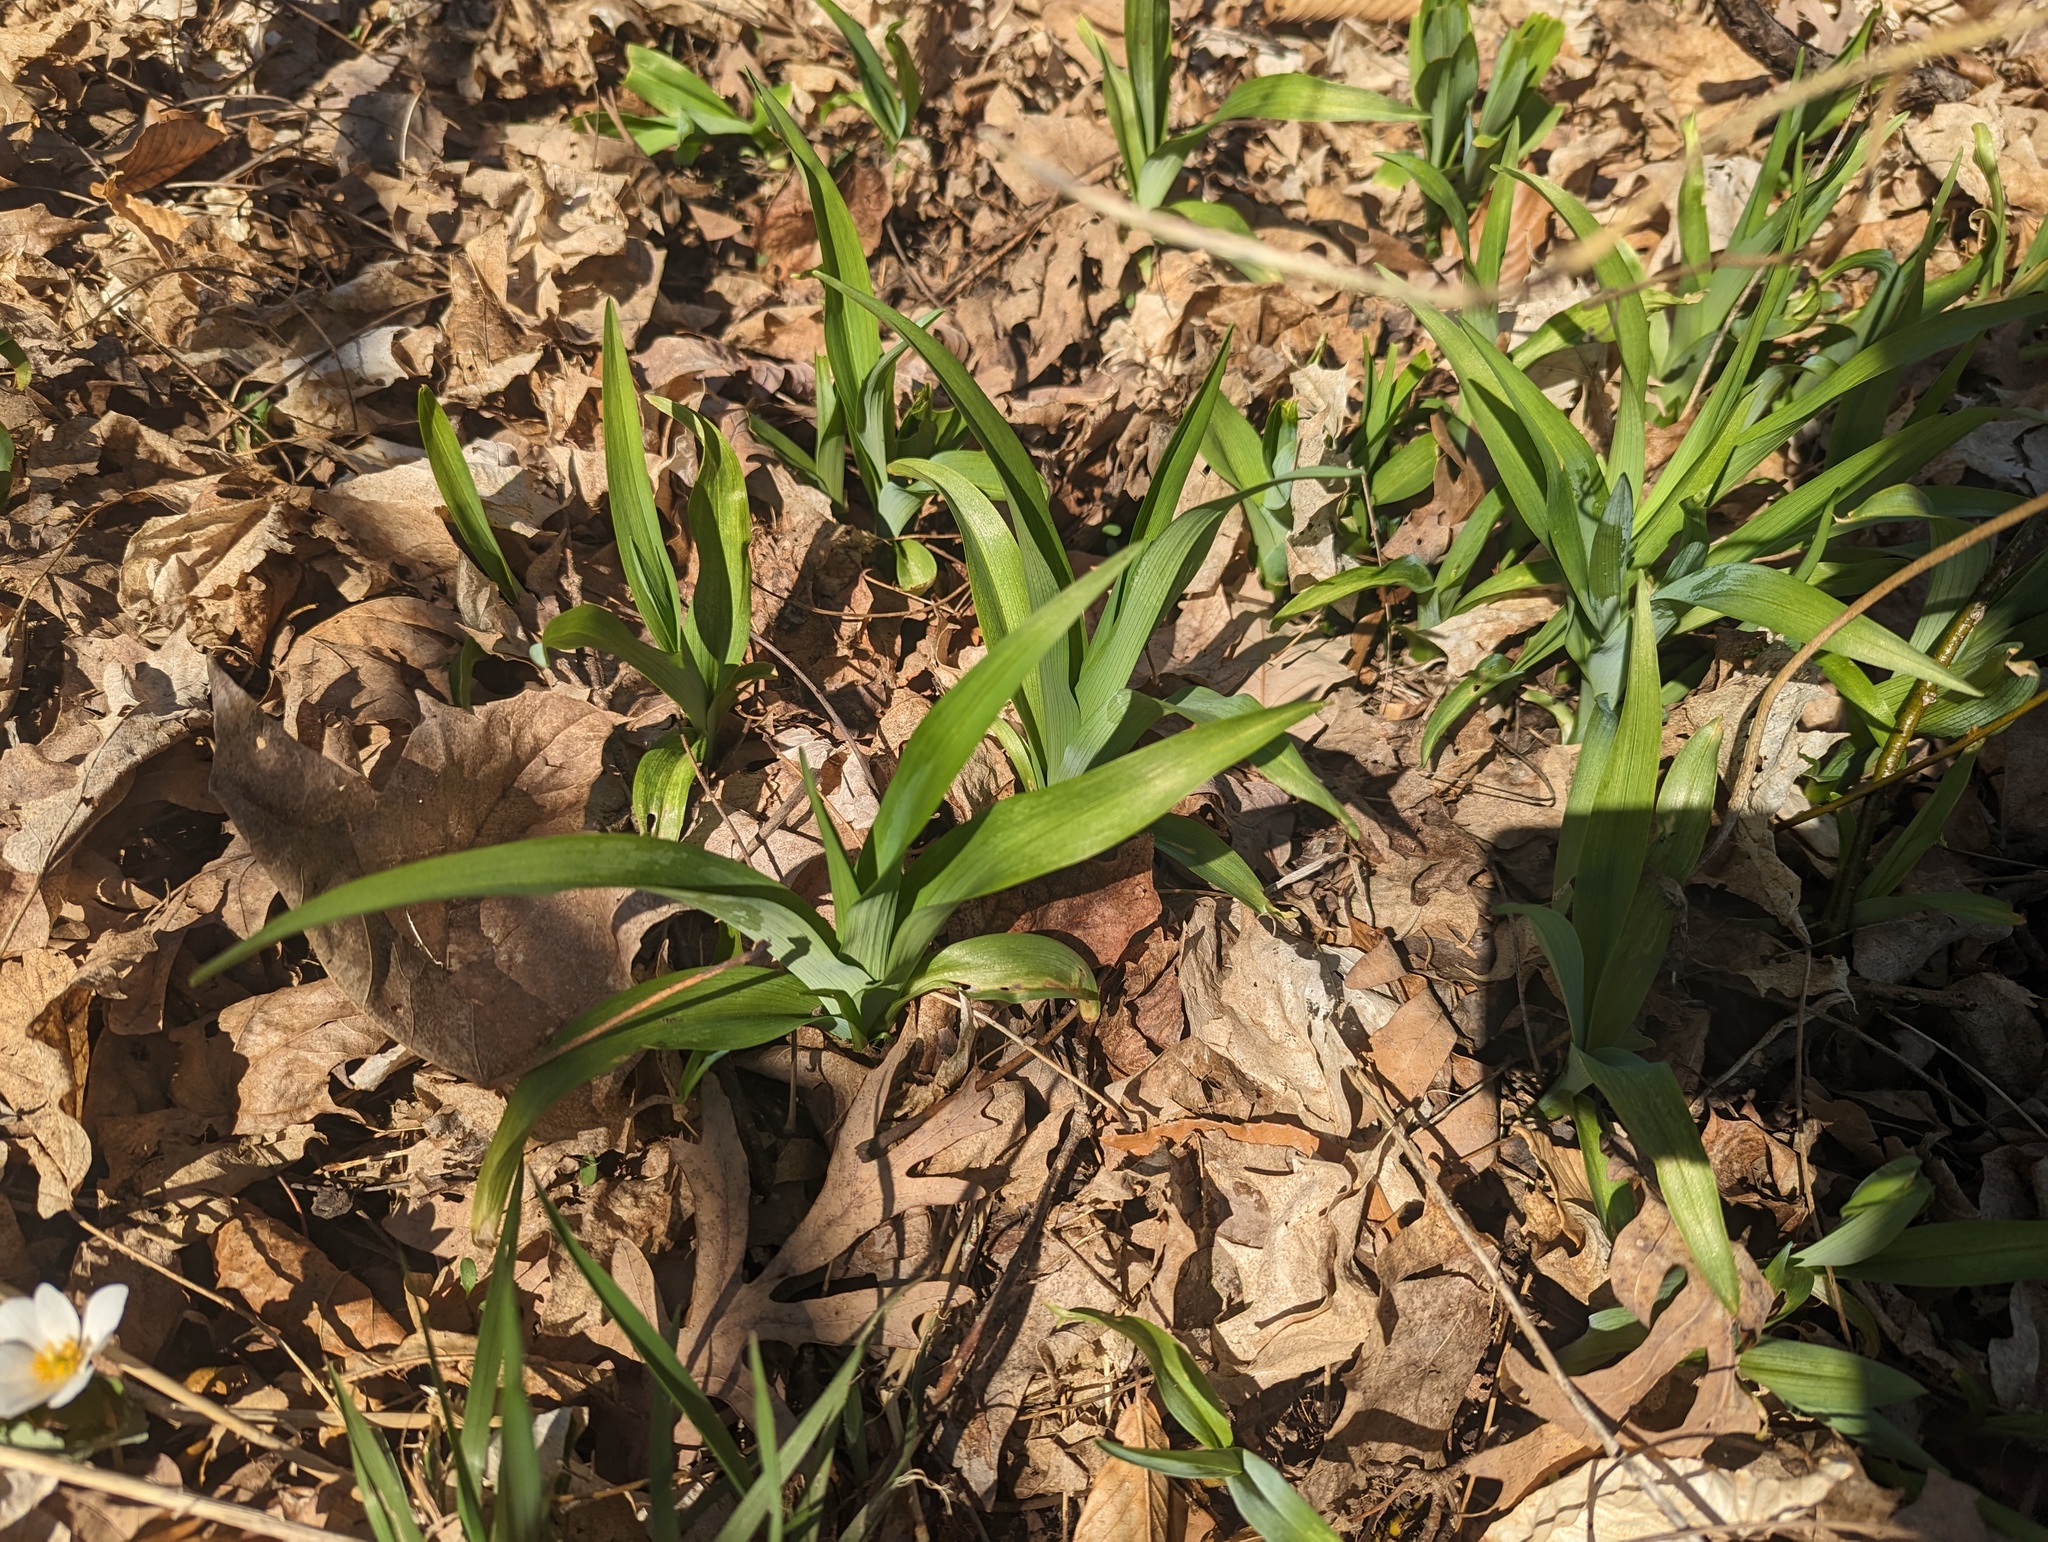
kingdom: Plantae
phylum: Tracheophyta
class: Liliopsida
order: Asparagales
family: Asphodelaceae
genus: Hemerocallis
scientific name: Hemerocallis fulva
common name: Orange day-lily
